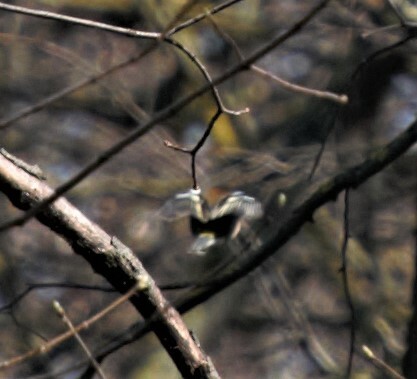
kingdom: Animalia
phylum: Chordata
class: Aves
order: Passeriformes
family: Fringillidae
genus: Fringilla
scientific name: Fringilla coelebs
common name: Common chaffinch
